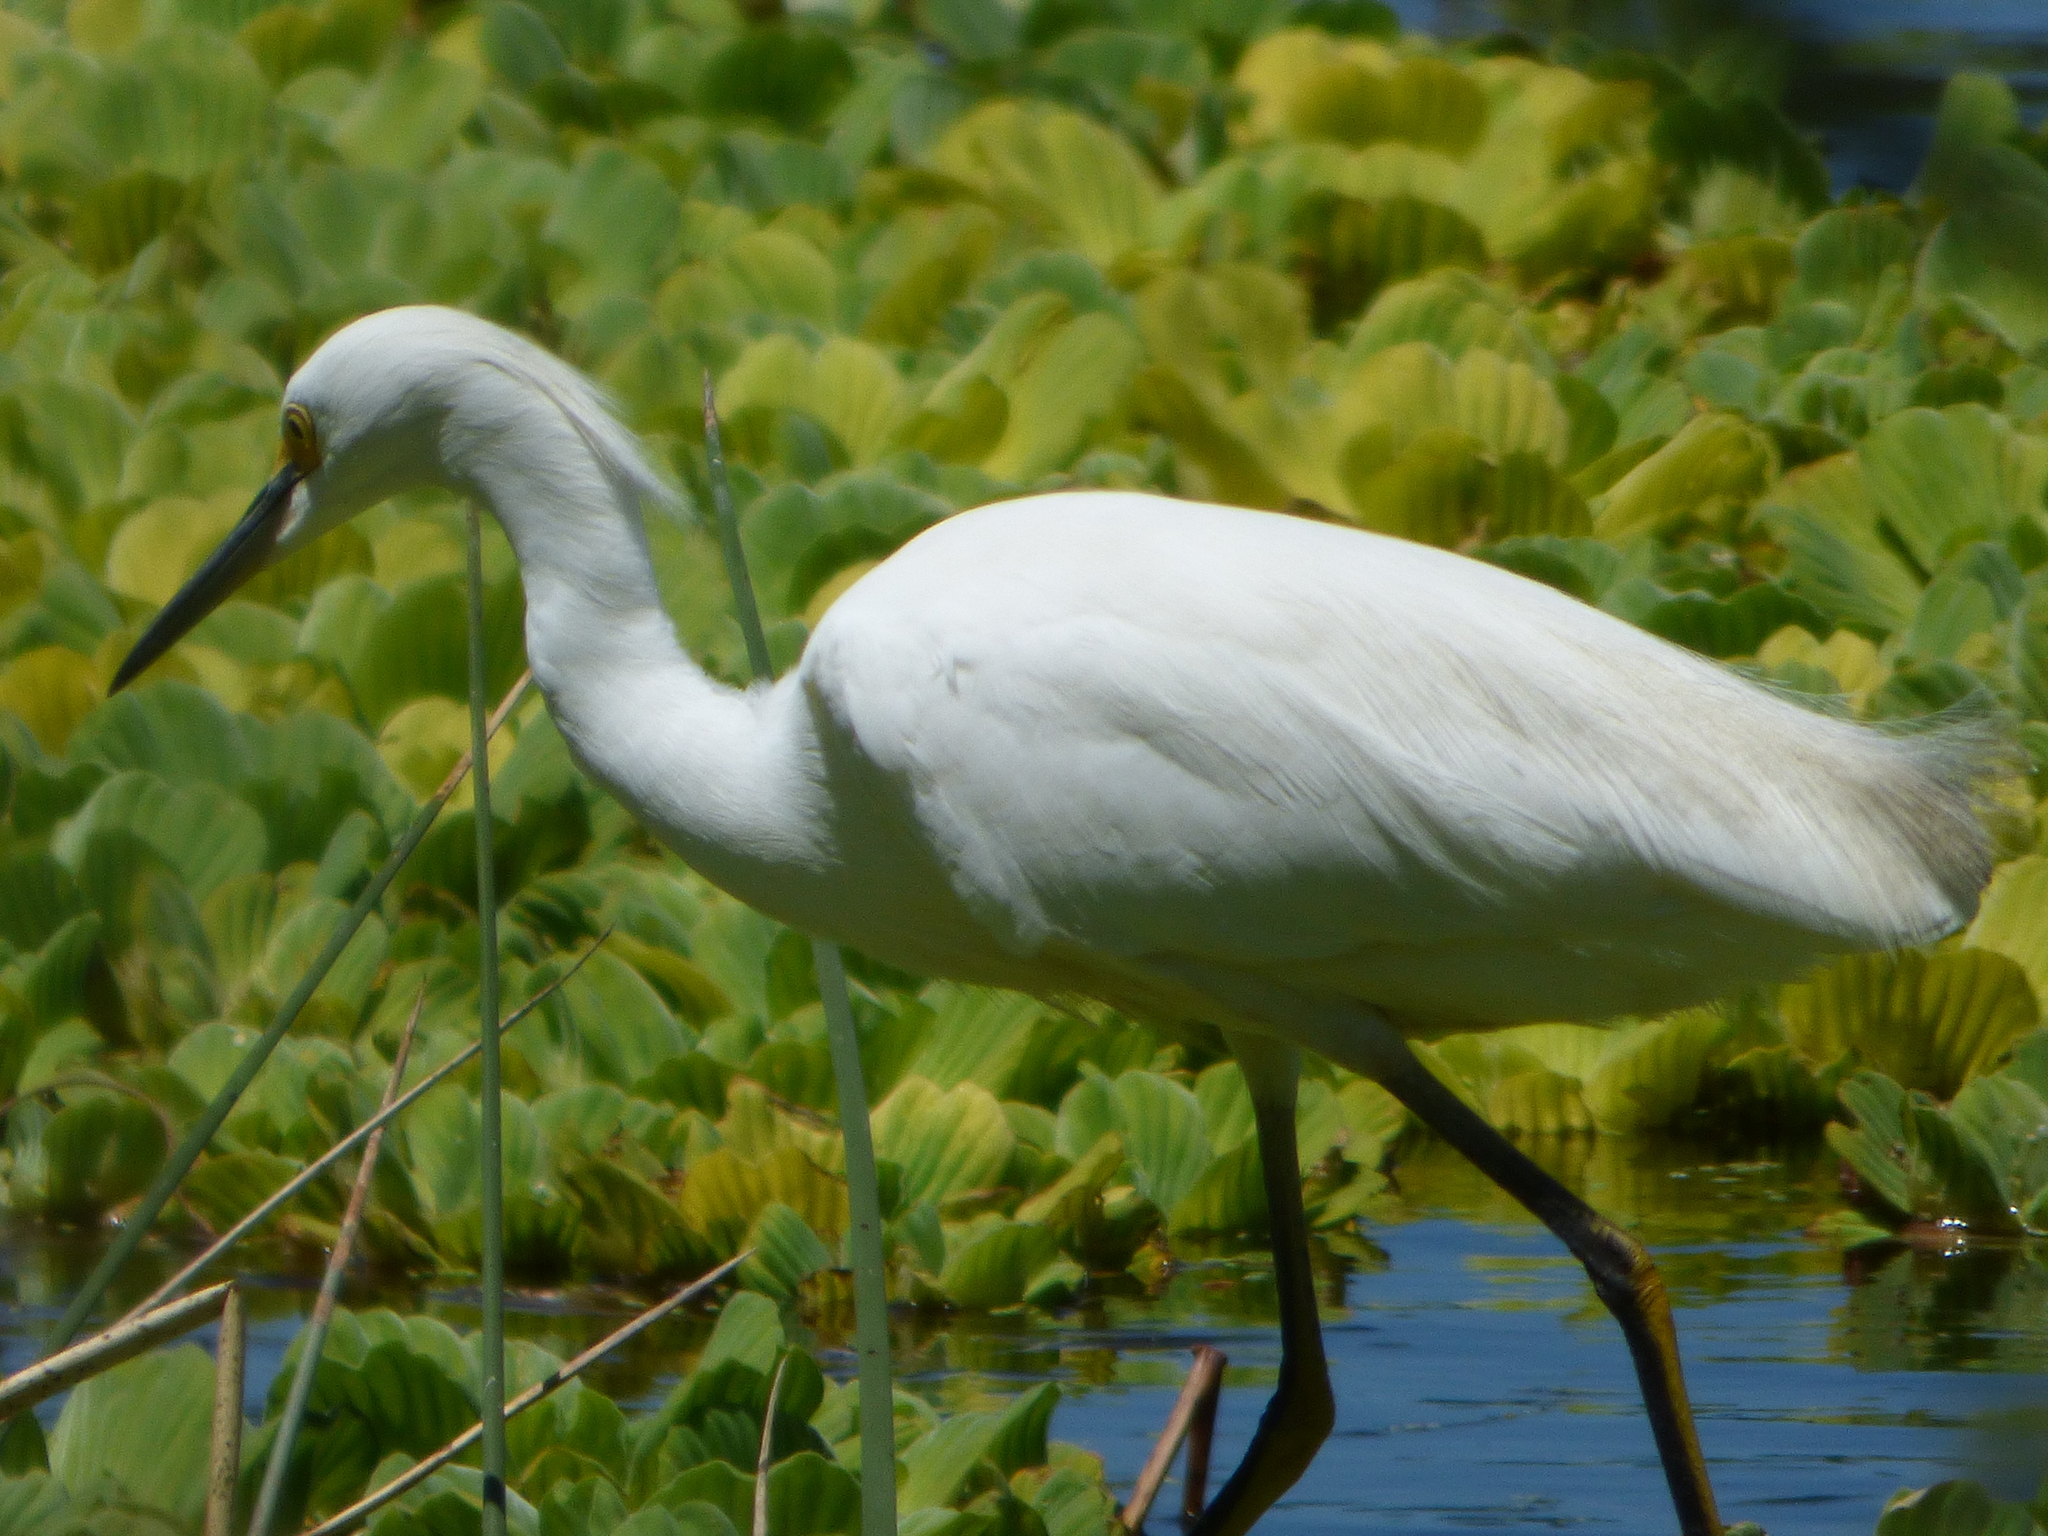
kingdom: Animalia
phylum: Chordata
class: Aves
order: Pelecaniformes
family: Ardeidae
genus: Egretta
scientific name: Egretta thula
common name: Snowy egret
